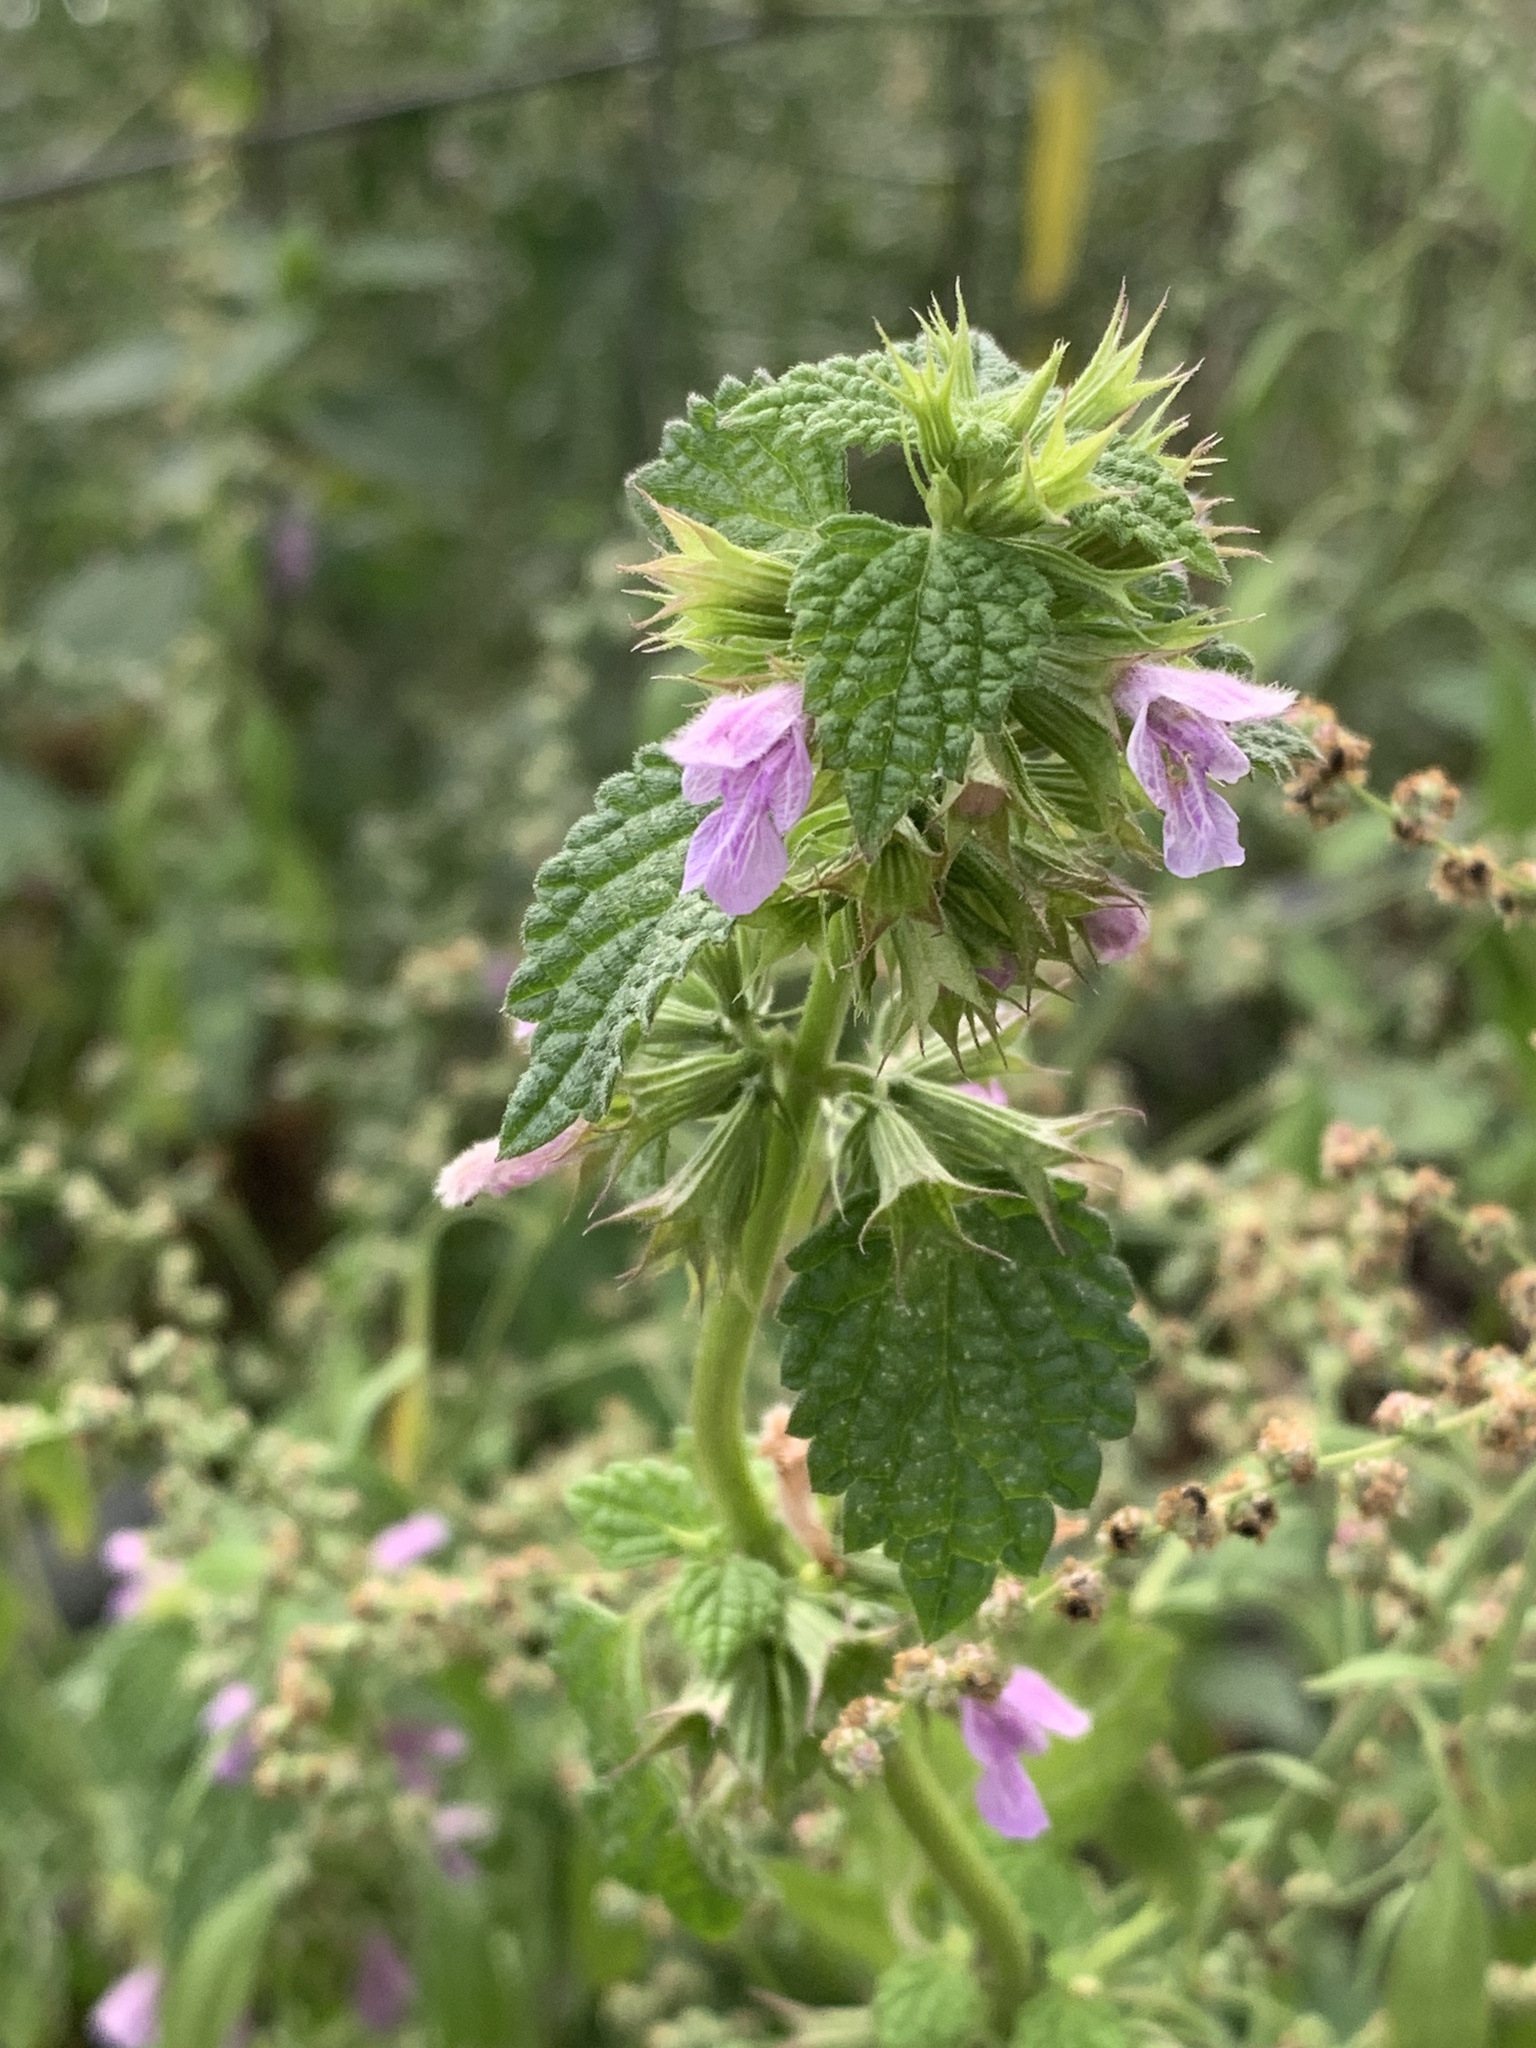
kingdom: Plantae
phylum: Tracheophyta
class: Magnoliopsida
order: Lamiales
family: Lamiaceae
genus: Ballota
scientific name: Ballota nigra
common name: Black horehound
